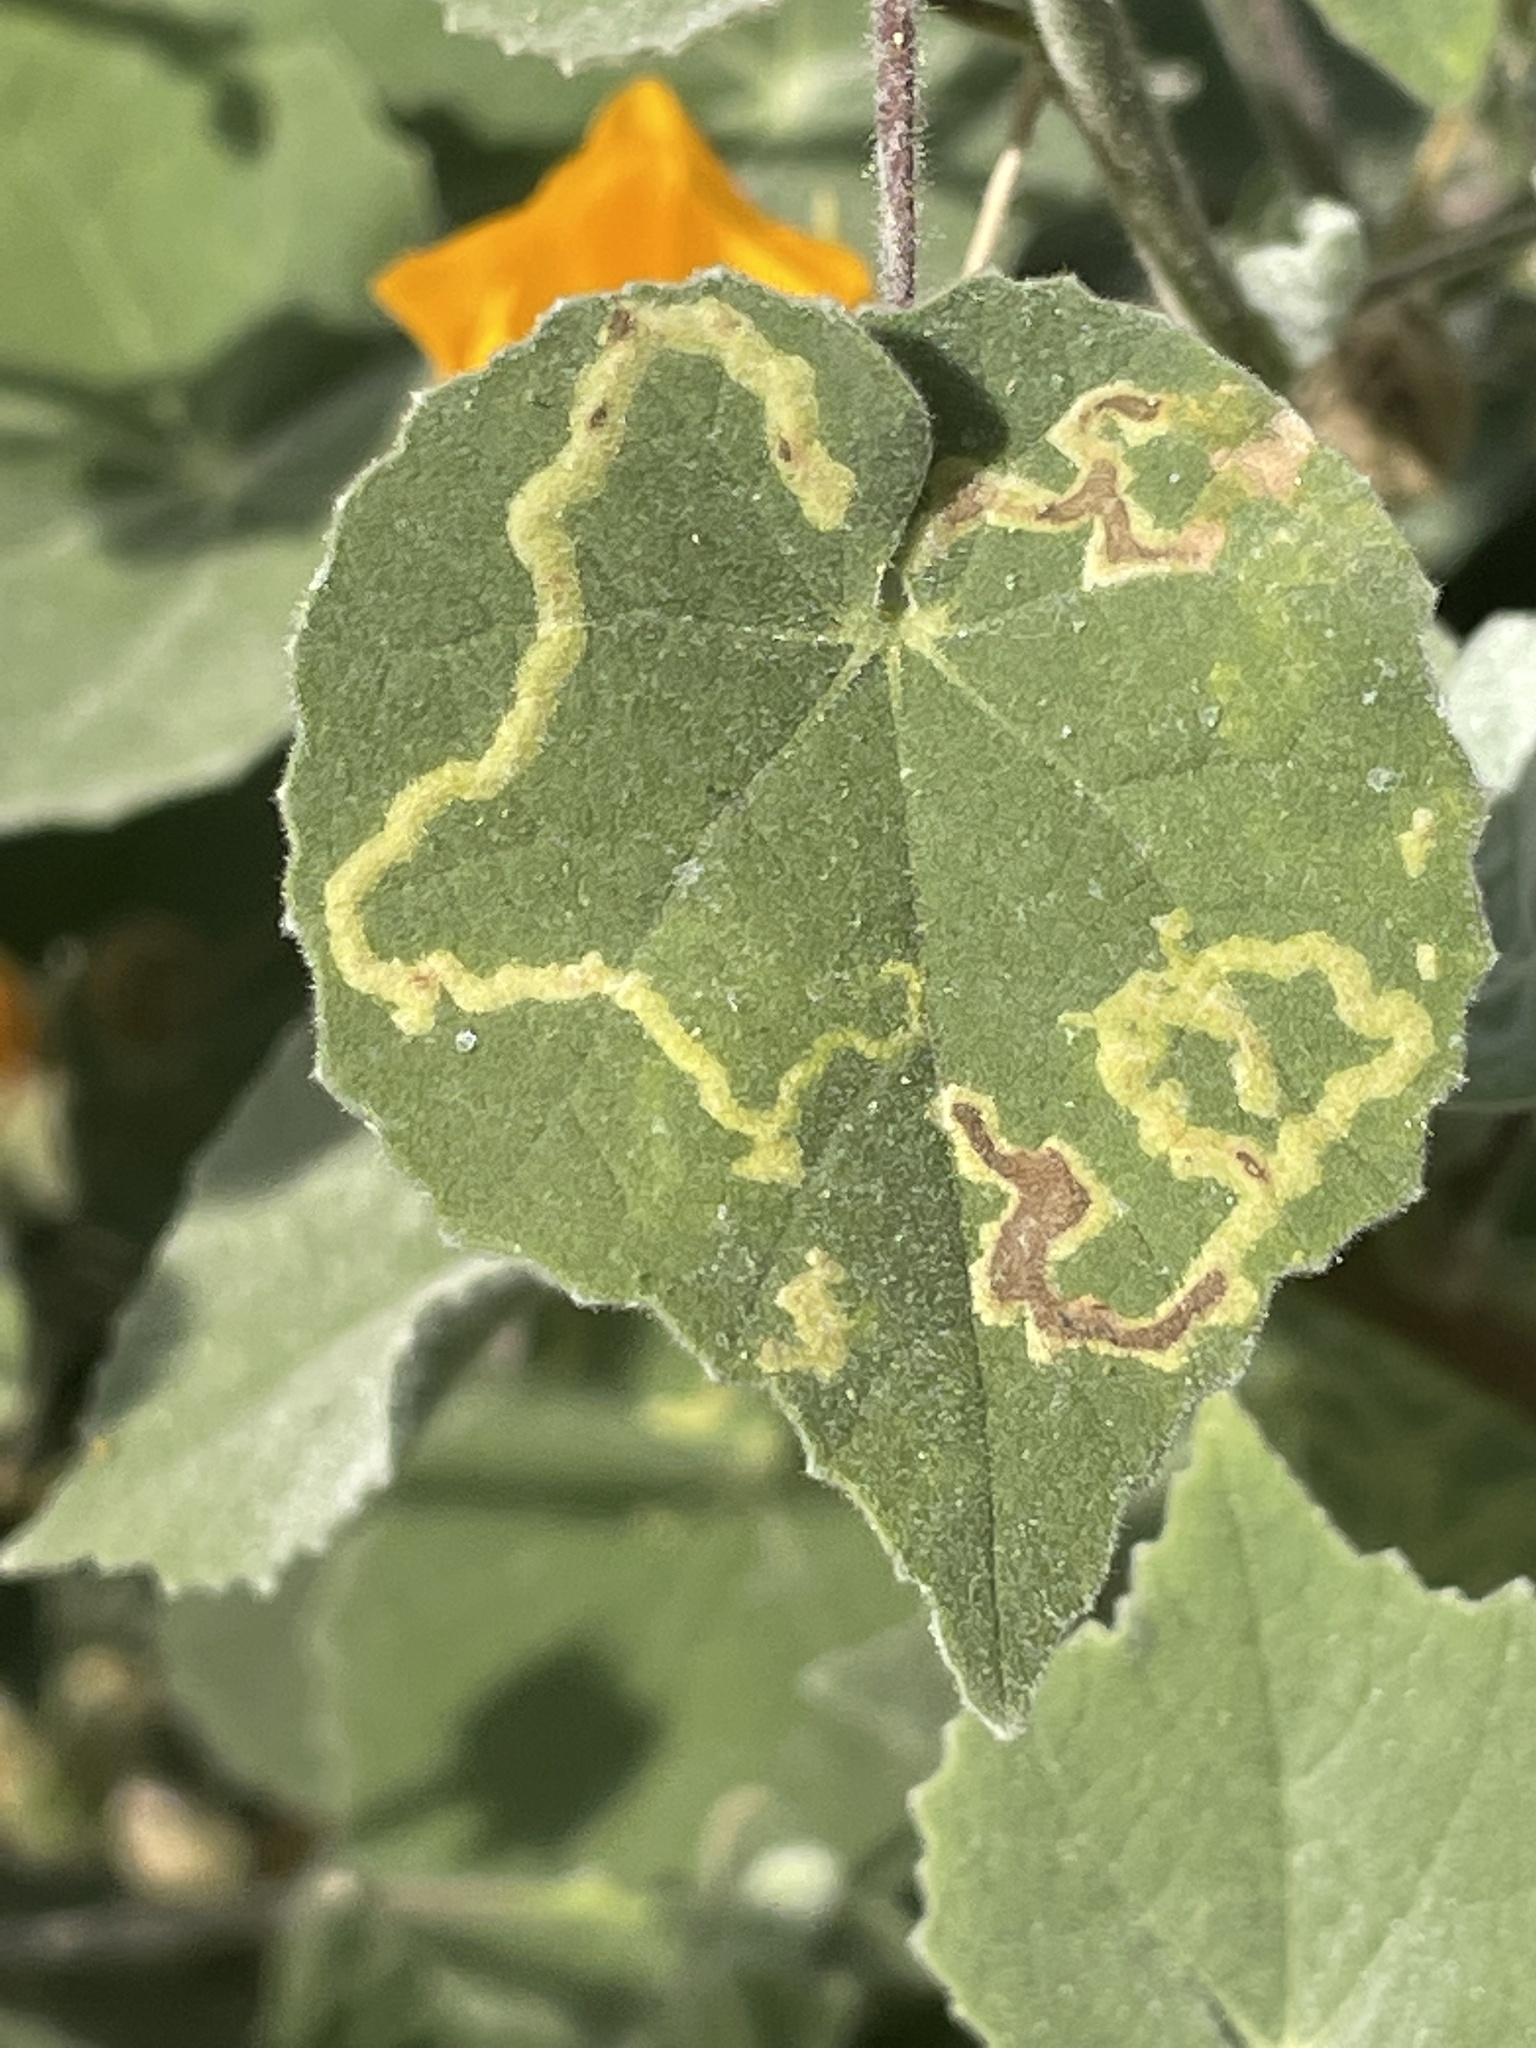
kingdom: Animalia
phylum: Arthropoda
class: Insecta
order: Diptera
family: Agromyzidae
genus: Calycomyza
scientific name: Calycomyza malvae
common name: Mallow leaf miner
